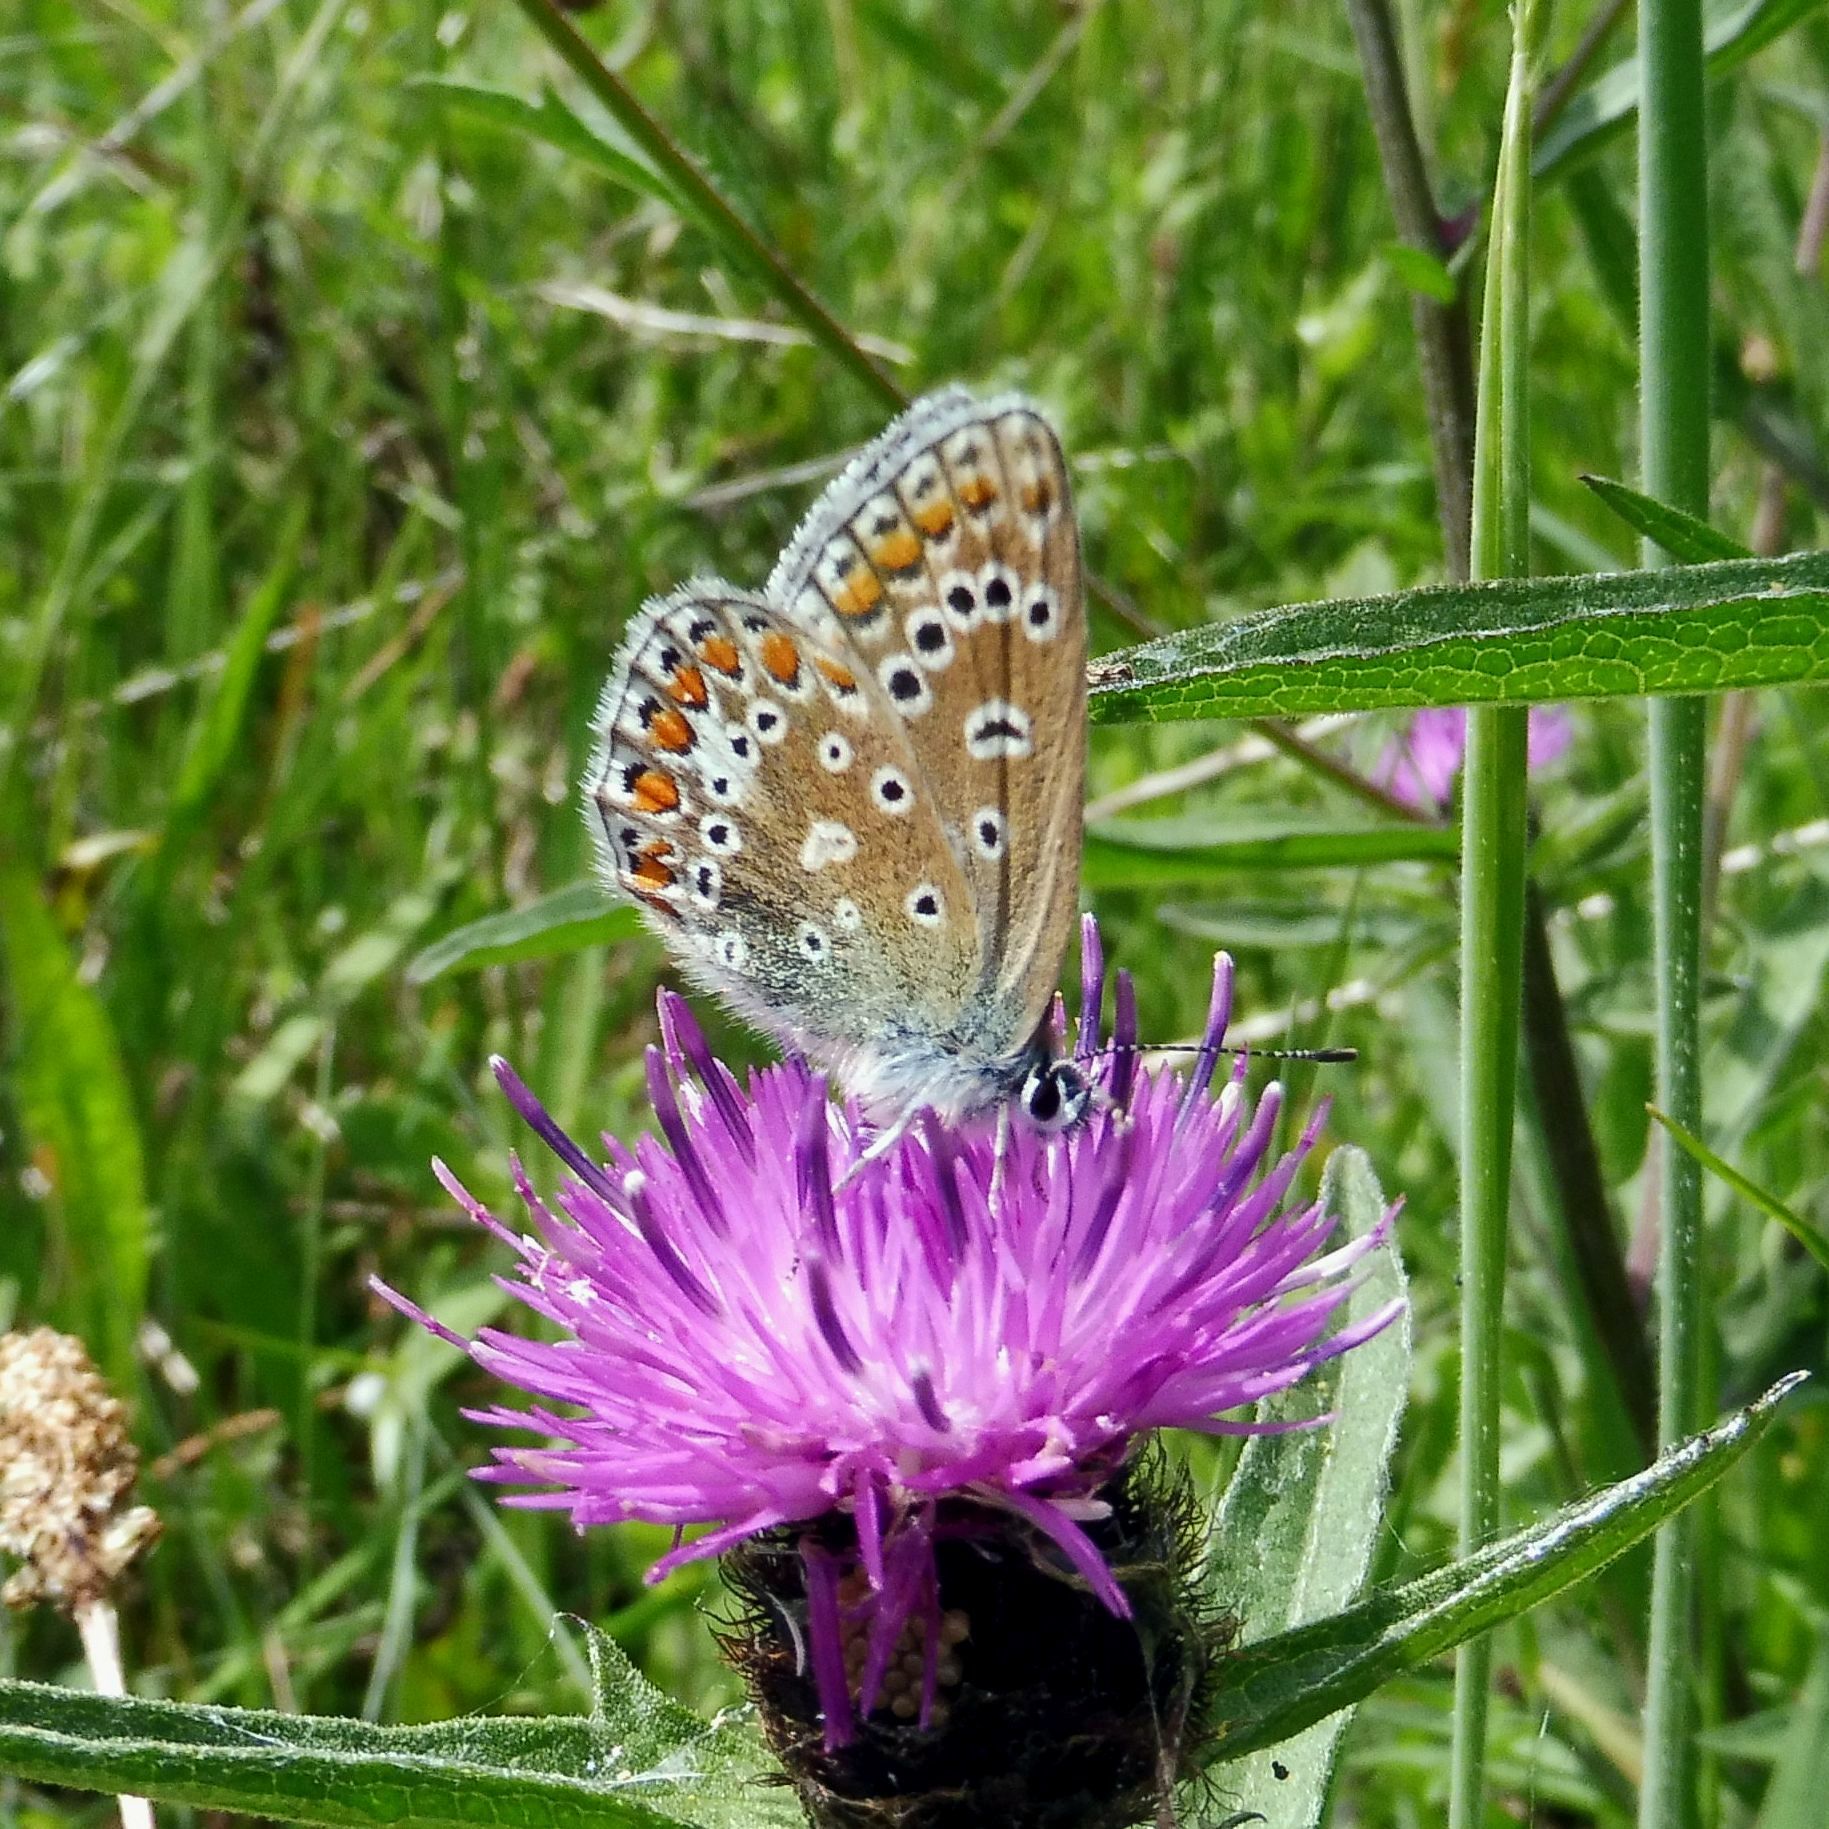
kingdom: Animalia
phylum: Arthropoda
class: Insecta
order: Lepidoptera
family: Lycaenidae
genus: Polyommatus
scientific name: Polyommatus icarus
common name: Common blue
